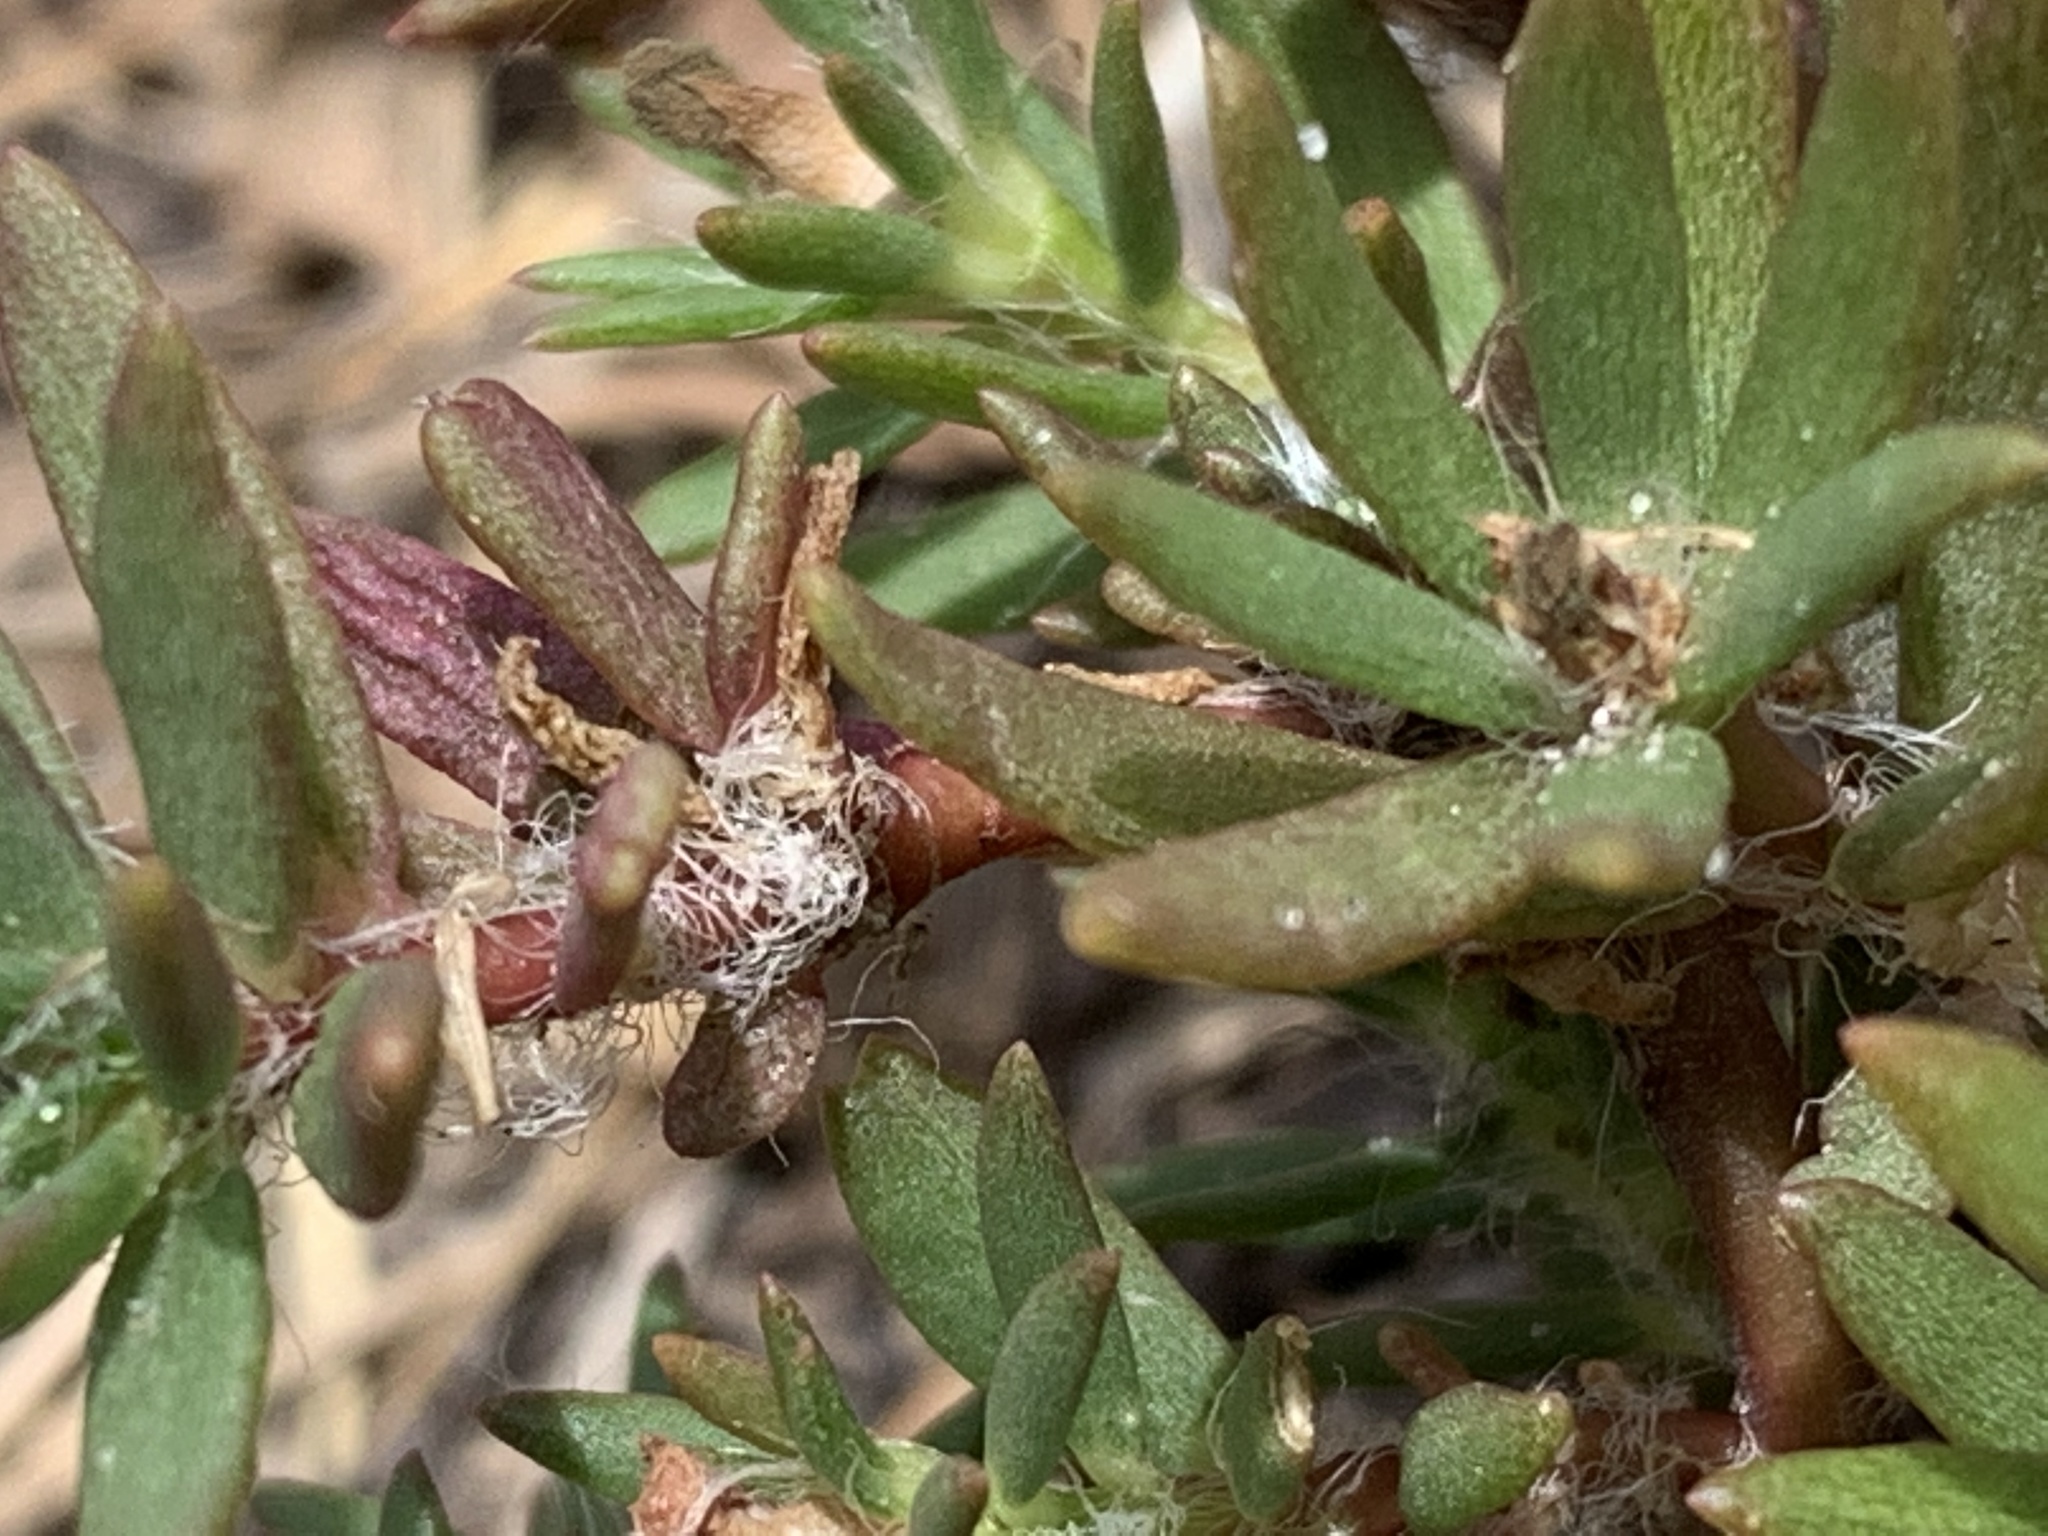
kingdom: Plantae
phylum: Tracheophyta
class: Magnoliopsida
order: Caryophyllales
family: Portulacaceae
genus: Portulaca
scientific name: Portulaca pilosa
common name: Kiss me quick
